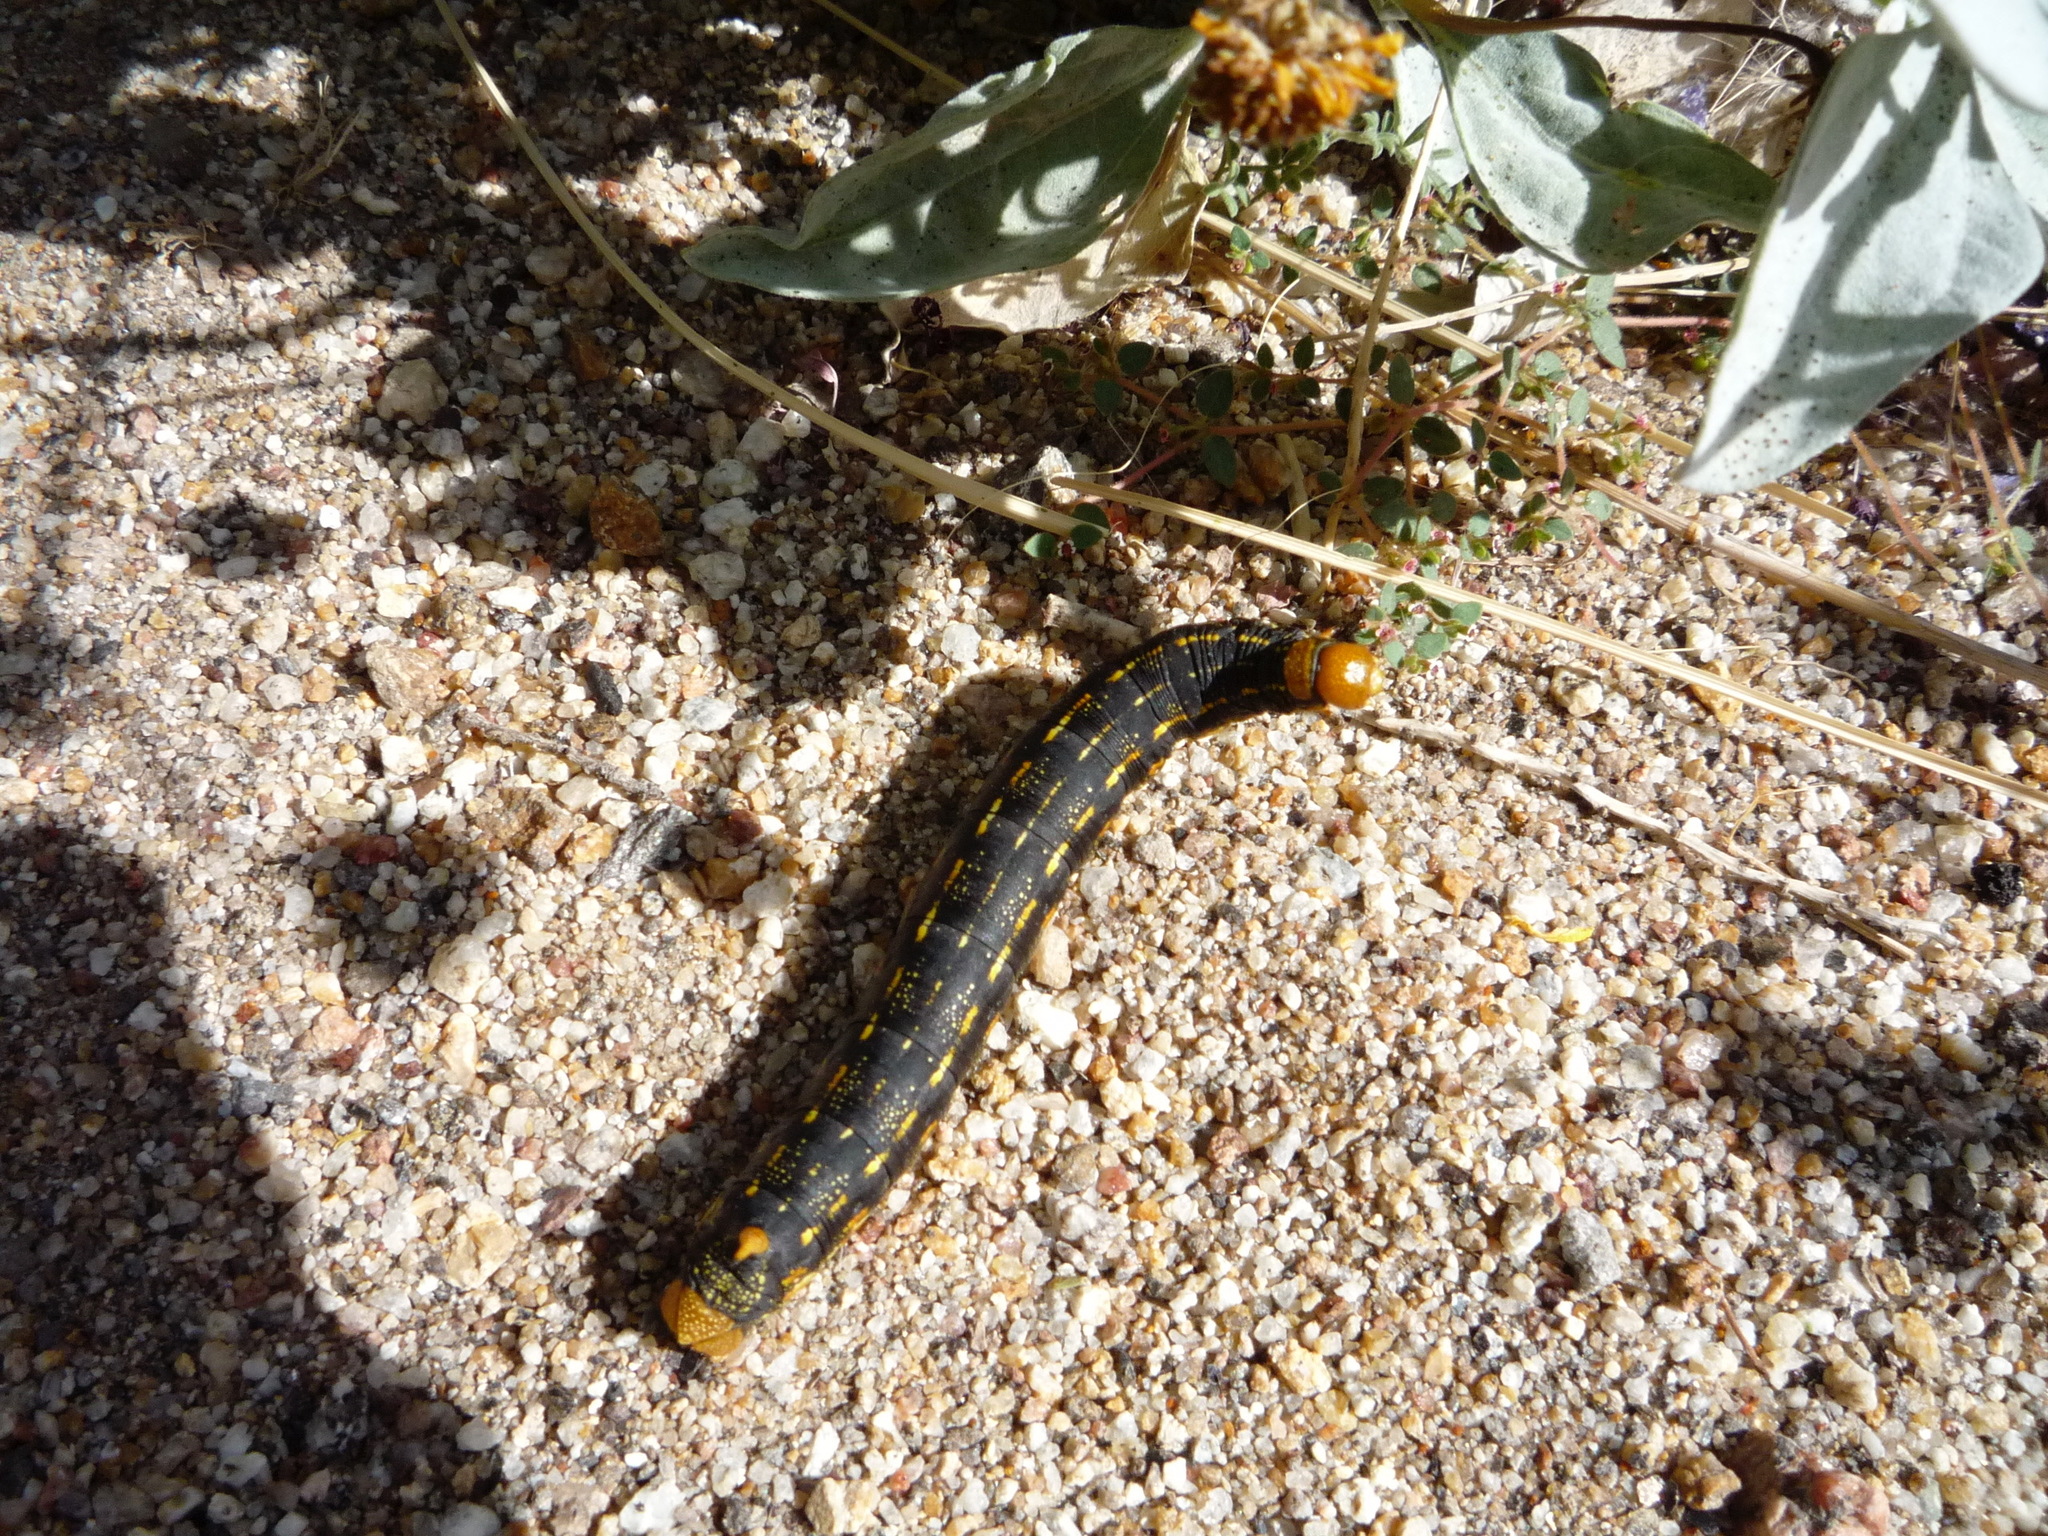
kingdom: Animalia
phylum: Arthropoda
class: Insecta
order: Lepidoptera
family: Sphingidae
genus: Hyles
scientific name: Hyles lineata
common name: White-lined sphinx
